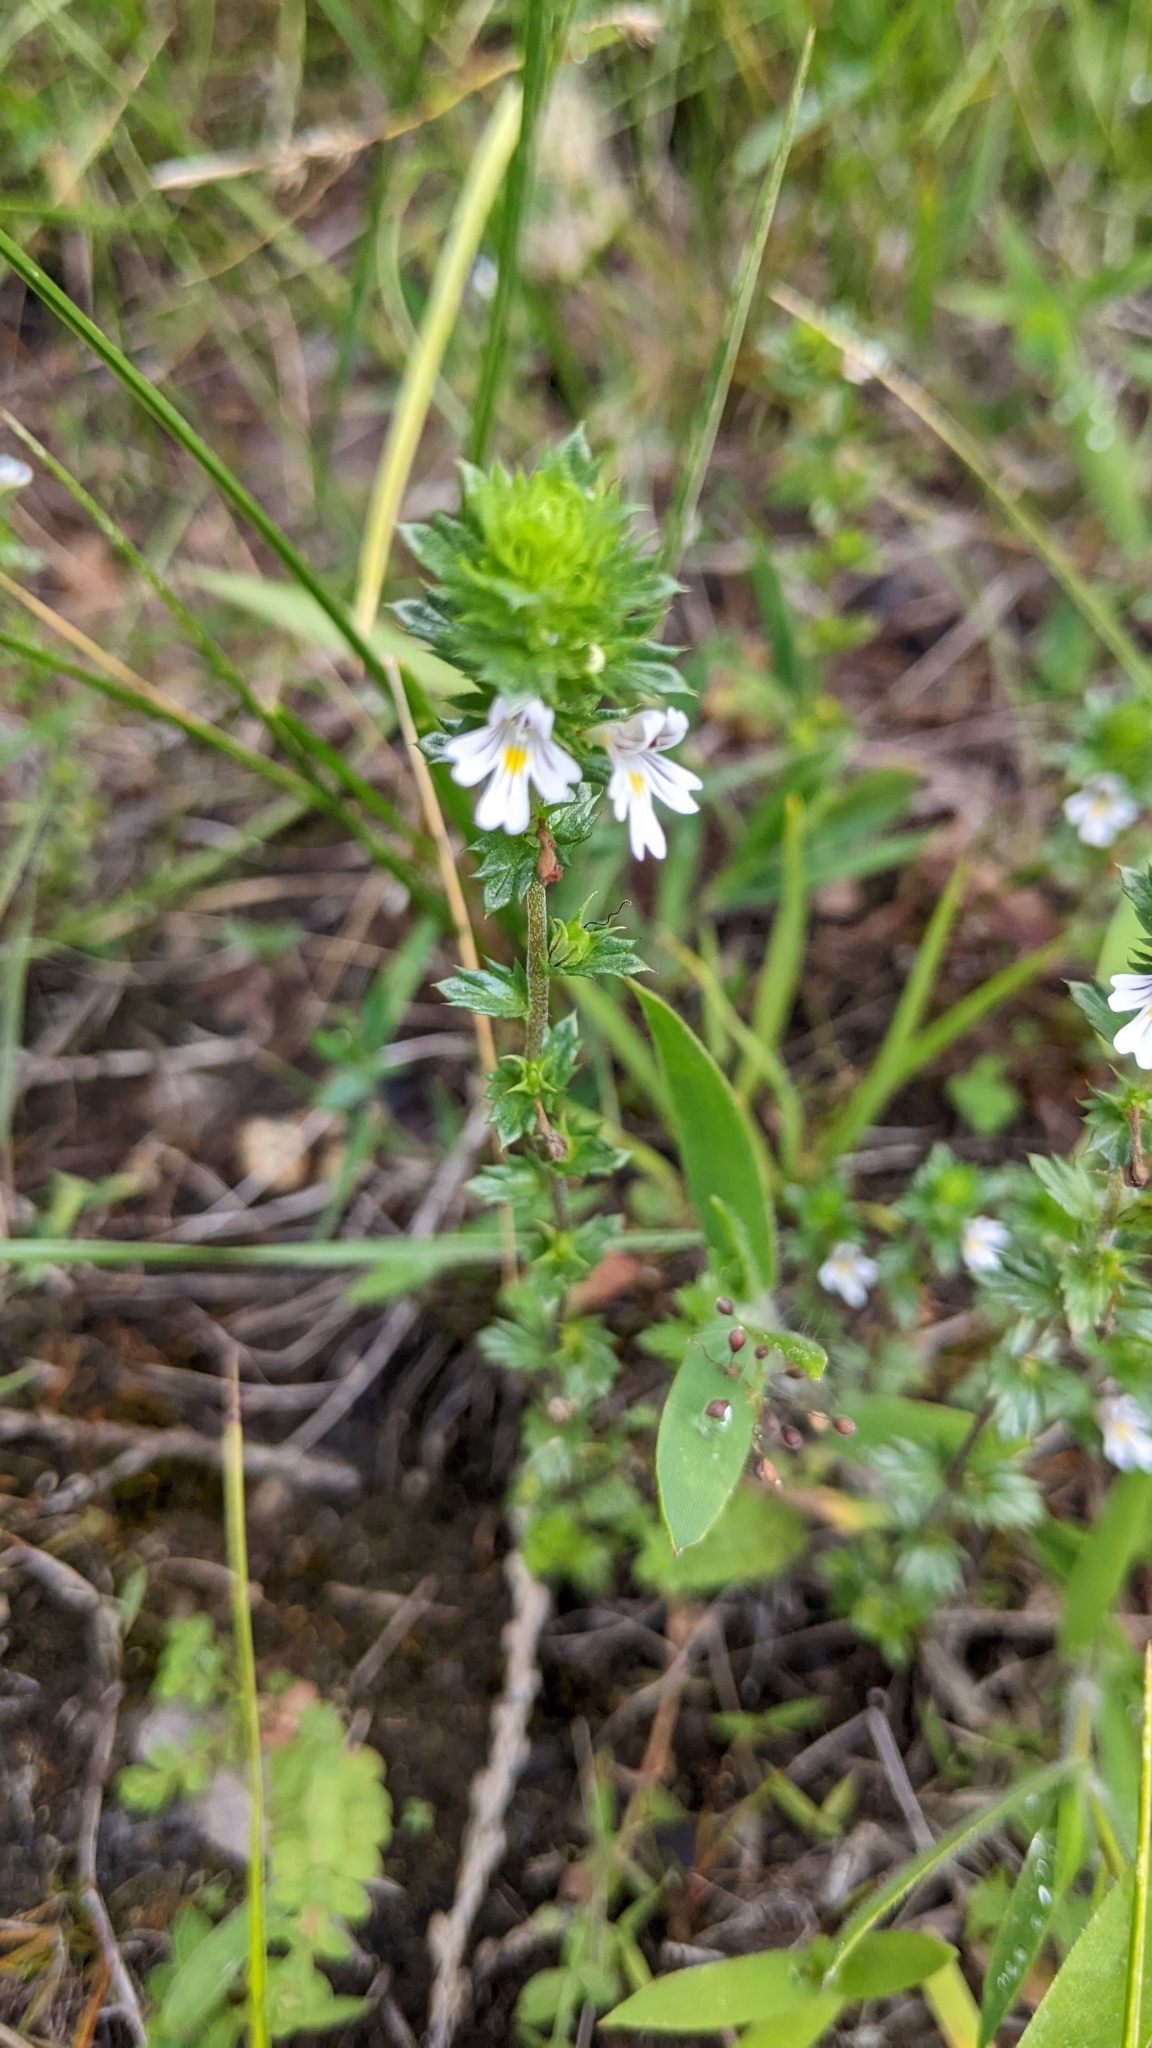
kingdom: Plantae
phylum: Tracheophyta
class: Magnoliopsida
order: Lamiales
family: Orobanchaceae
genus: Euphrasia
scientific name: Euphrasia nemorosa
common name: Common eyebright
